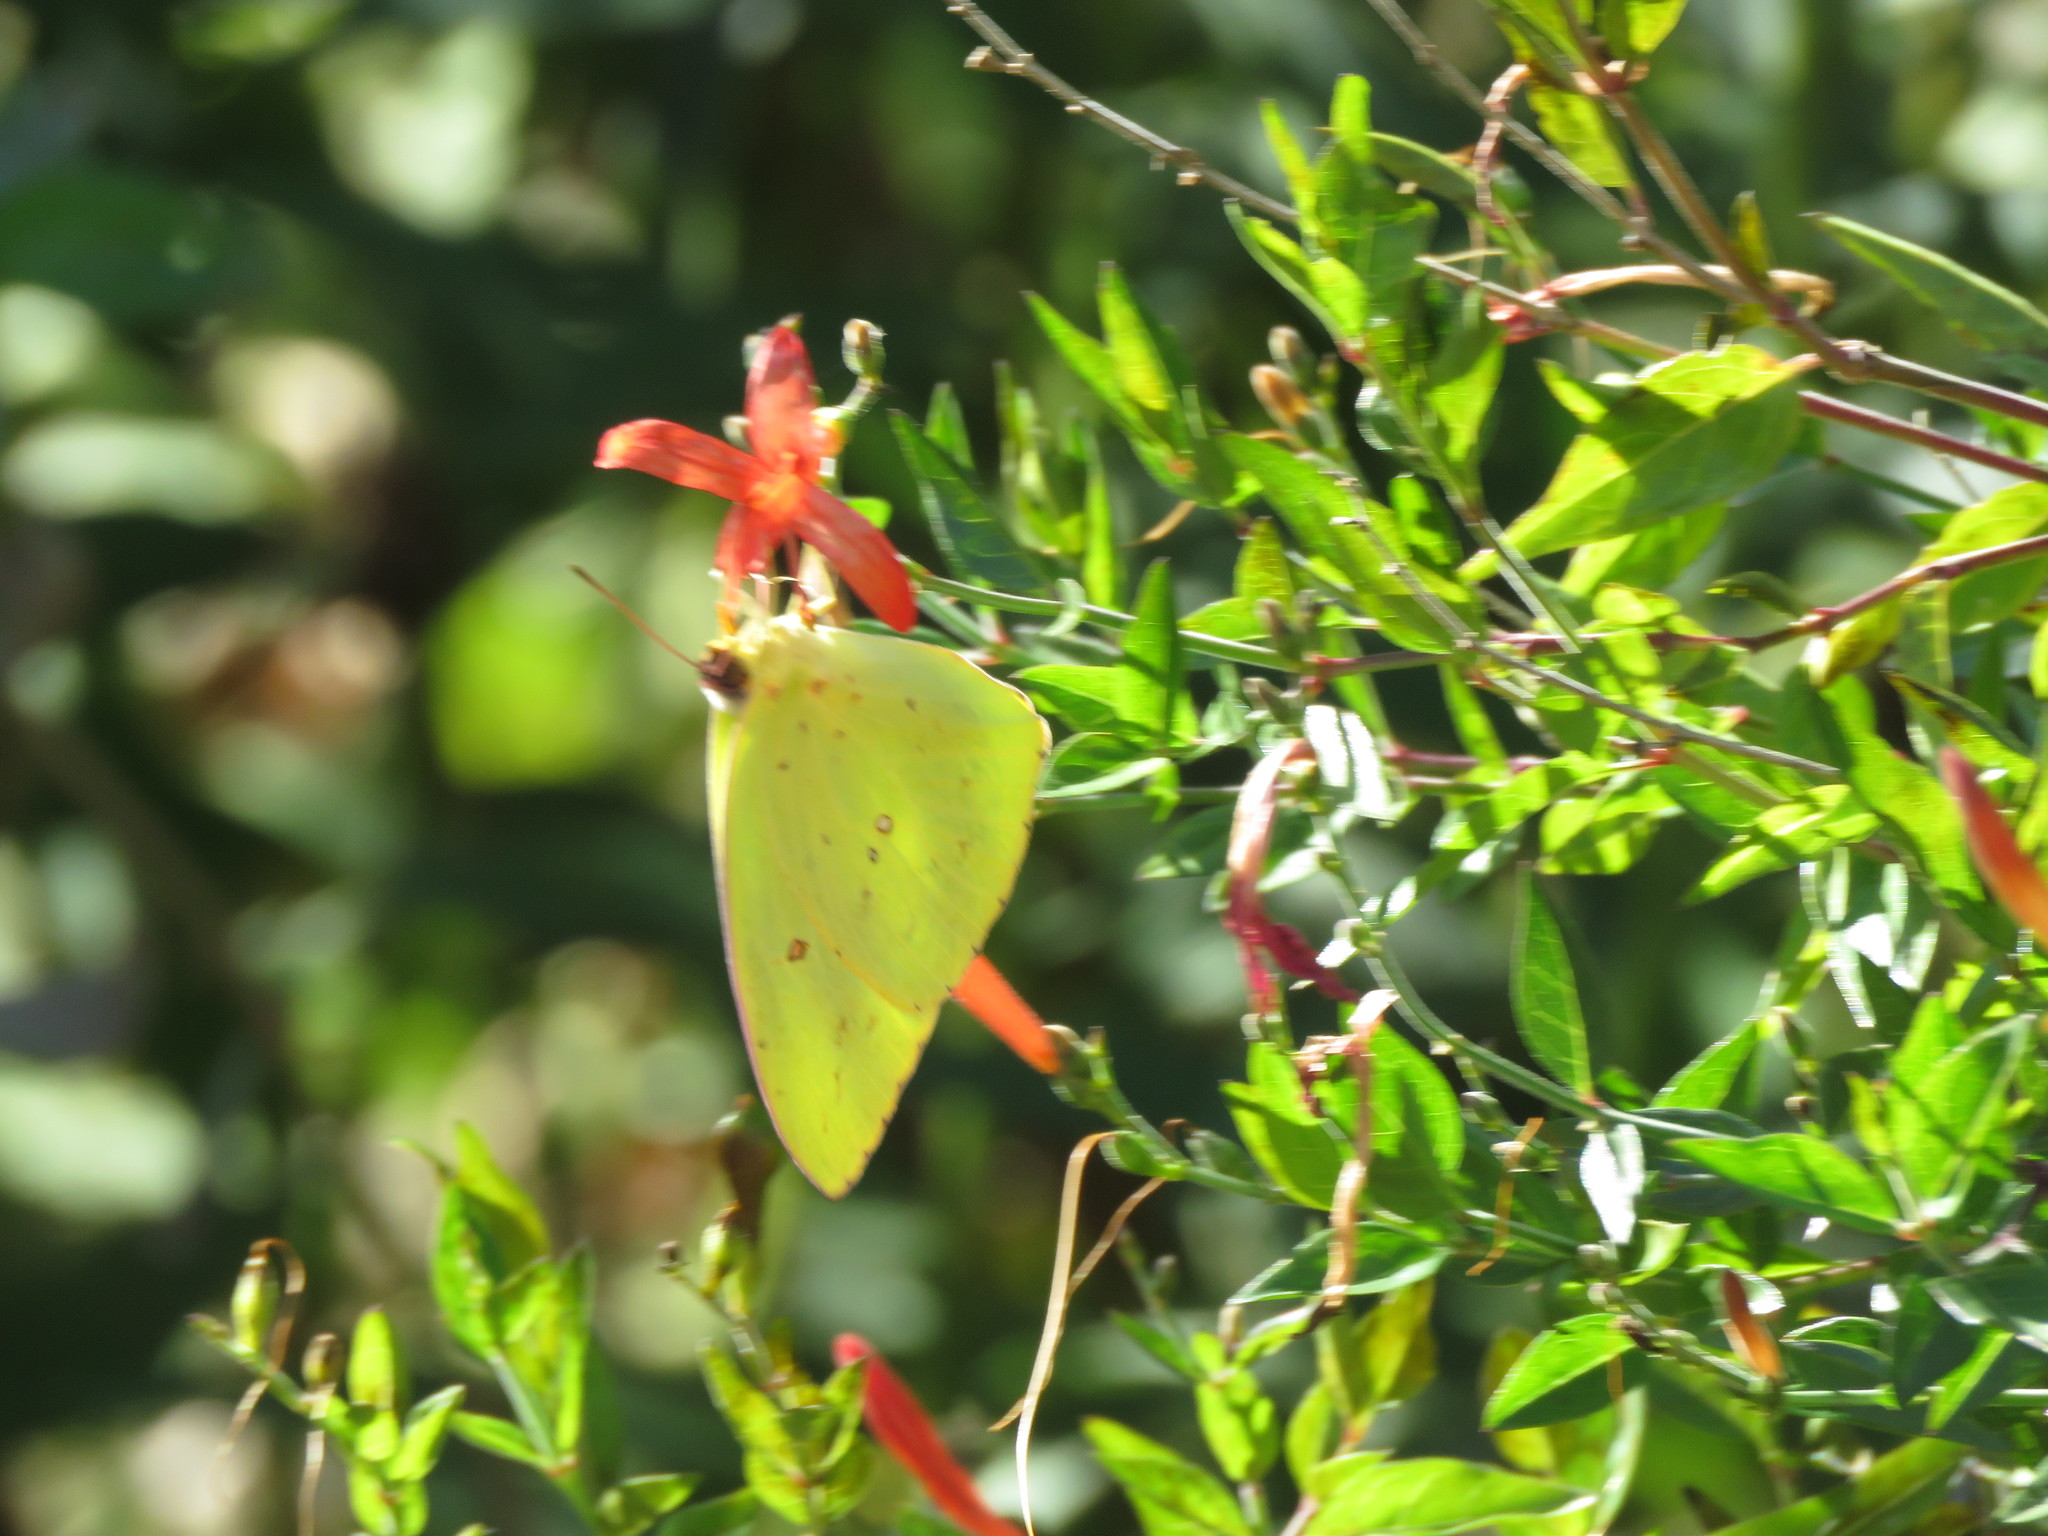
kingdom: Animalia
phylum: Arthropoda
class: Insecta
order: Lepidoptera
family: Pieridae
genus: Phoebis
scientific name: Phoebis sennae
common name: Cloudless sulphur
